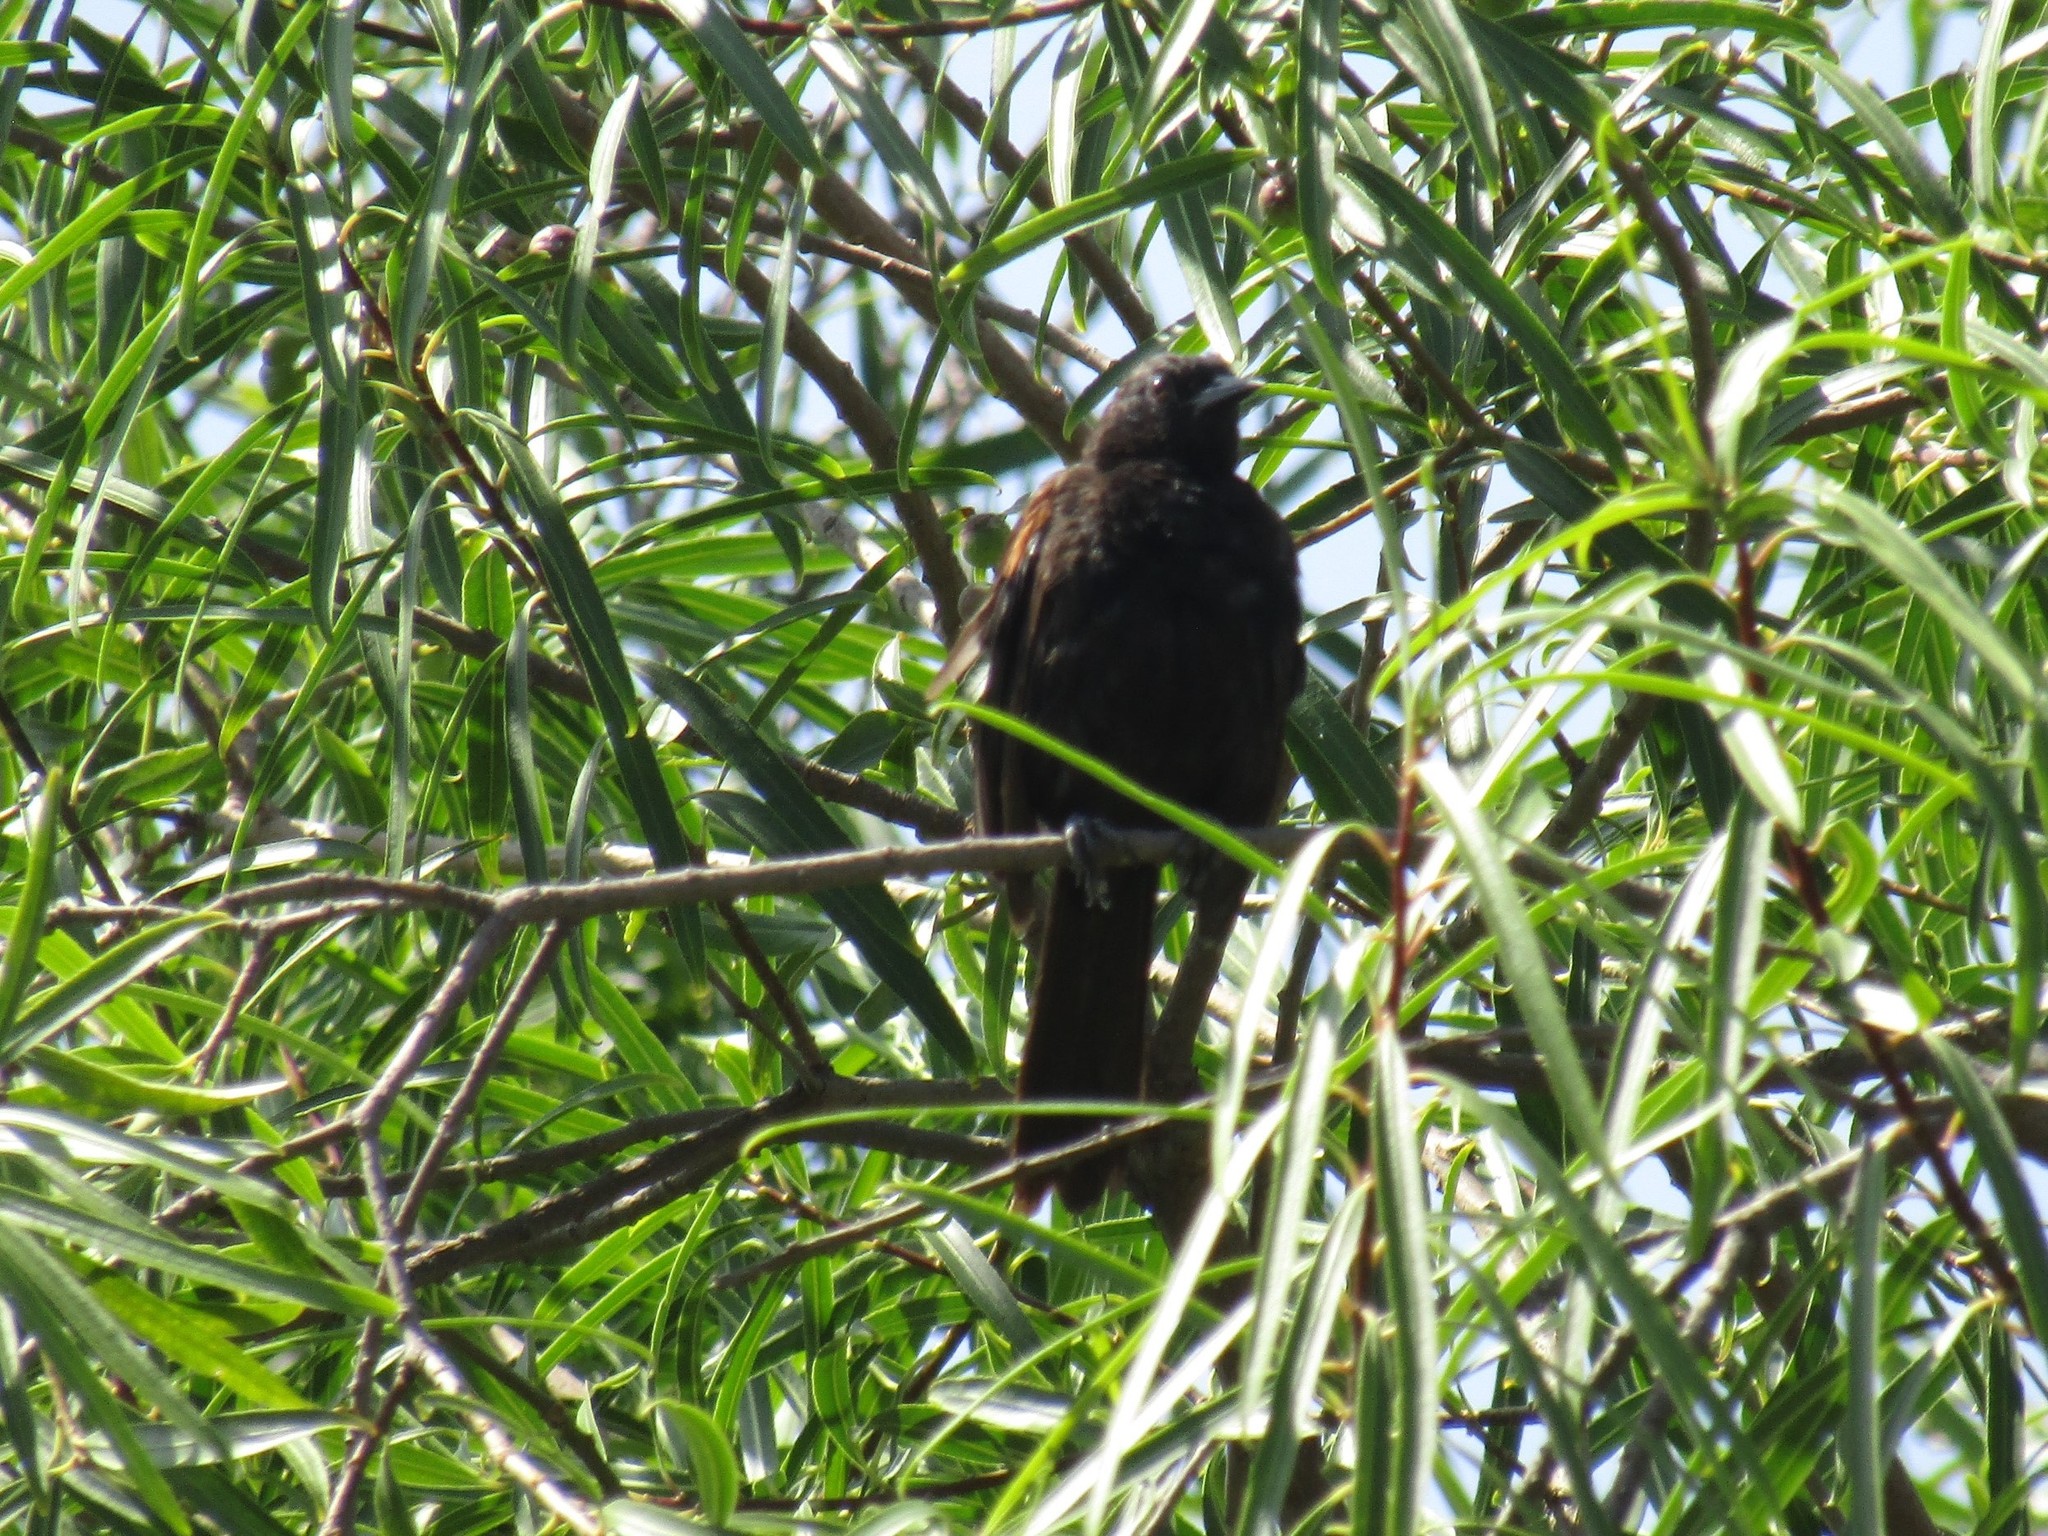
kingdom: Animalia
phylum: Chordata
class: Aves
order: Passeriformes
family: Icteridae
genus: Icterus
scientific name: Icterus cayanensis
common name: Epaulet oriole
